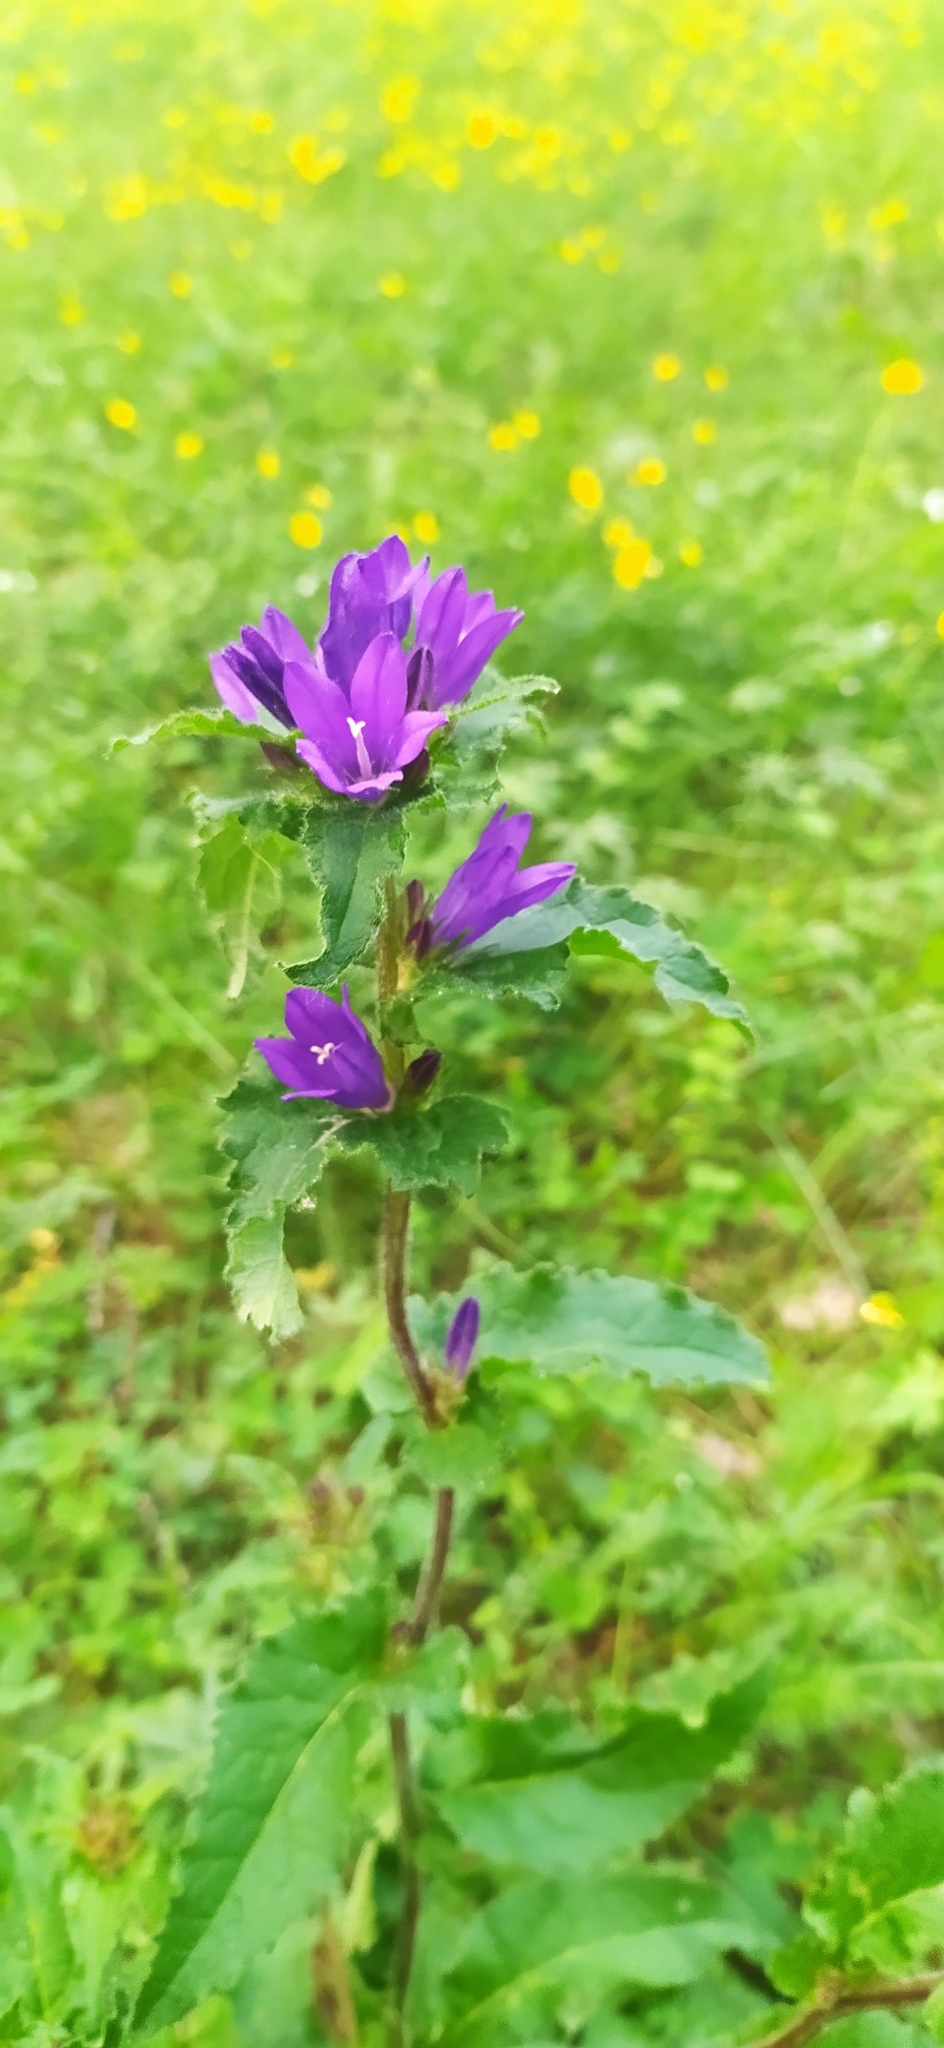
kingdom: Plantae
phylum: Tracheophyta
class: Magnoliopsida
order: Asterales
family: Campanulaceae
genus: Campanula
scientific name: Campanula glomerata
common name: Clustered bellflower
